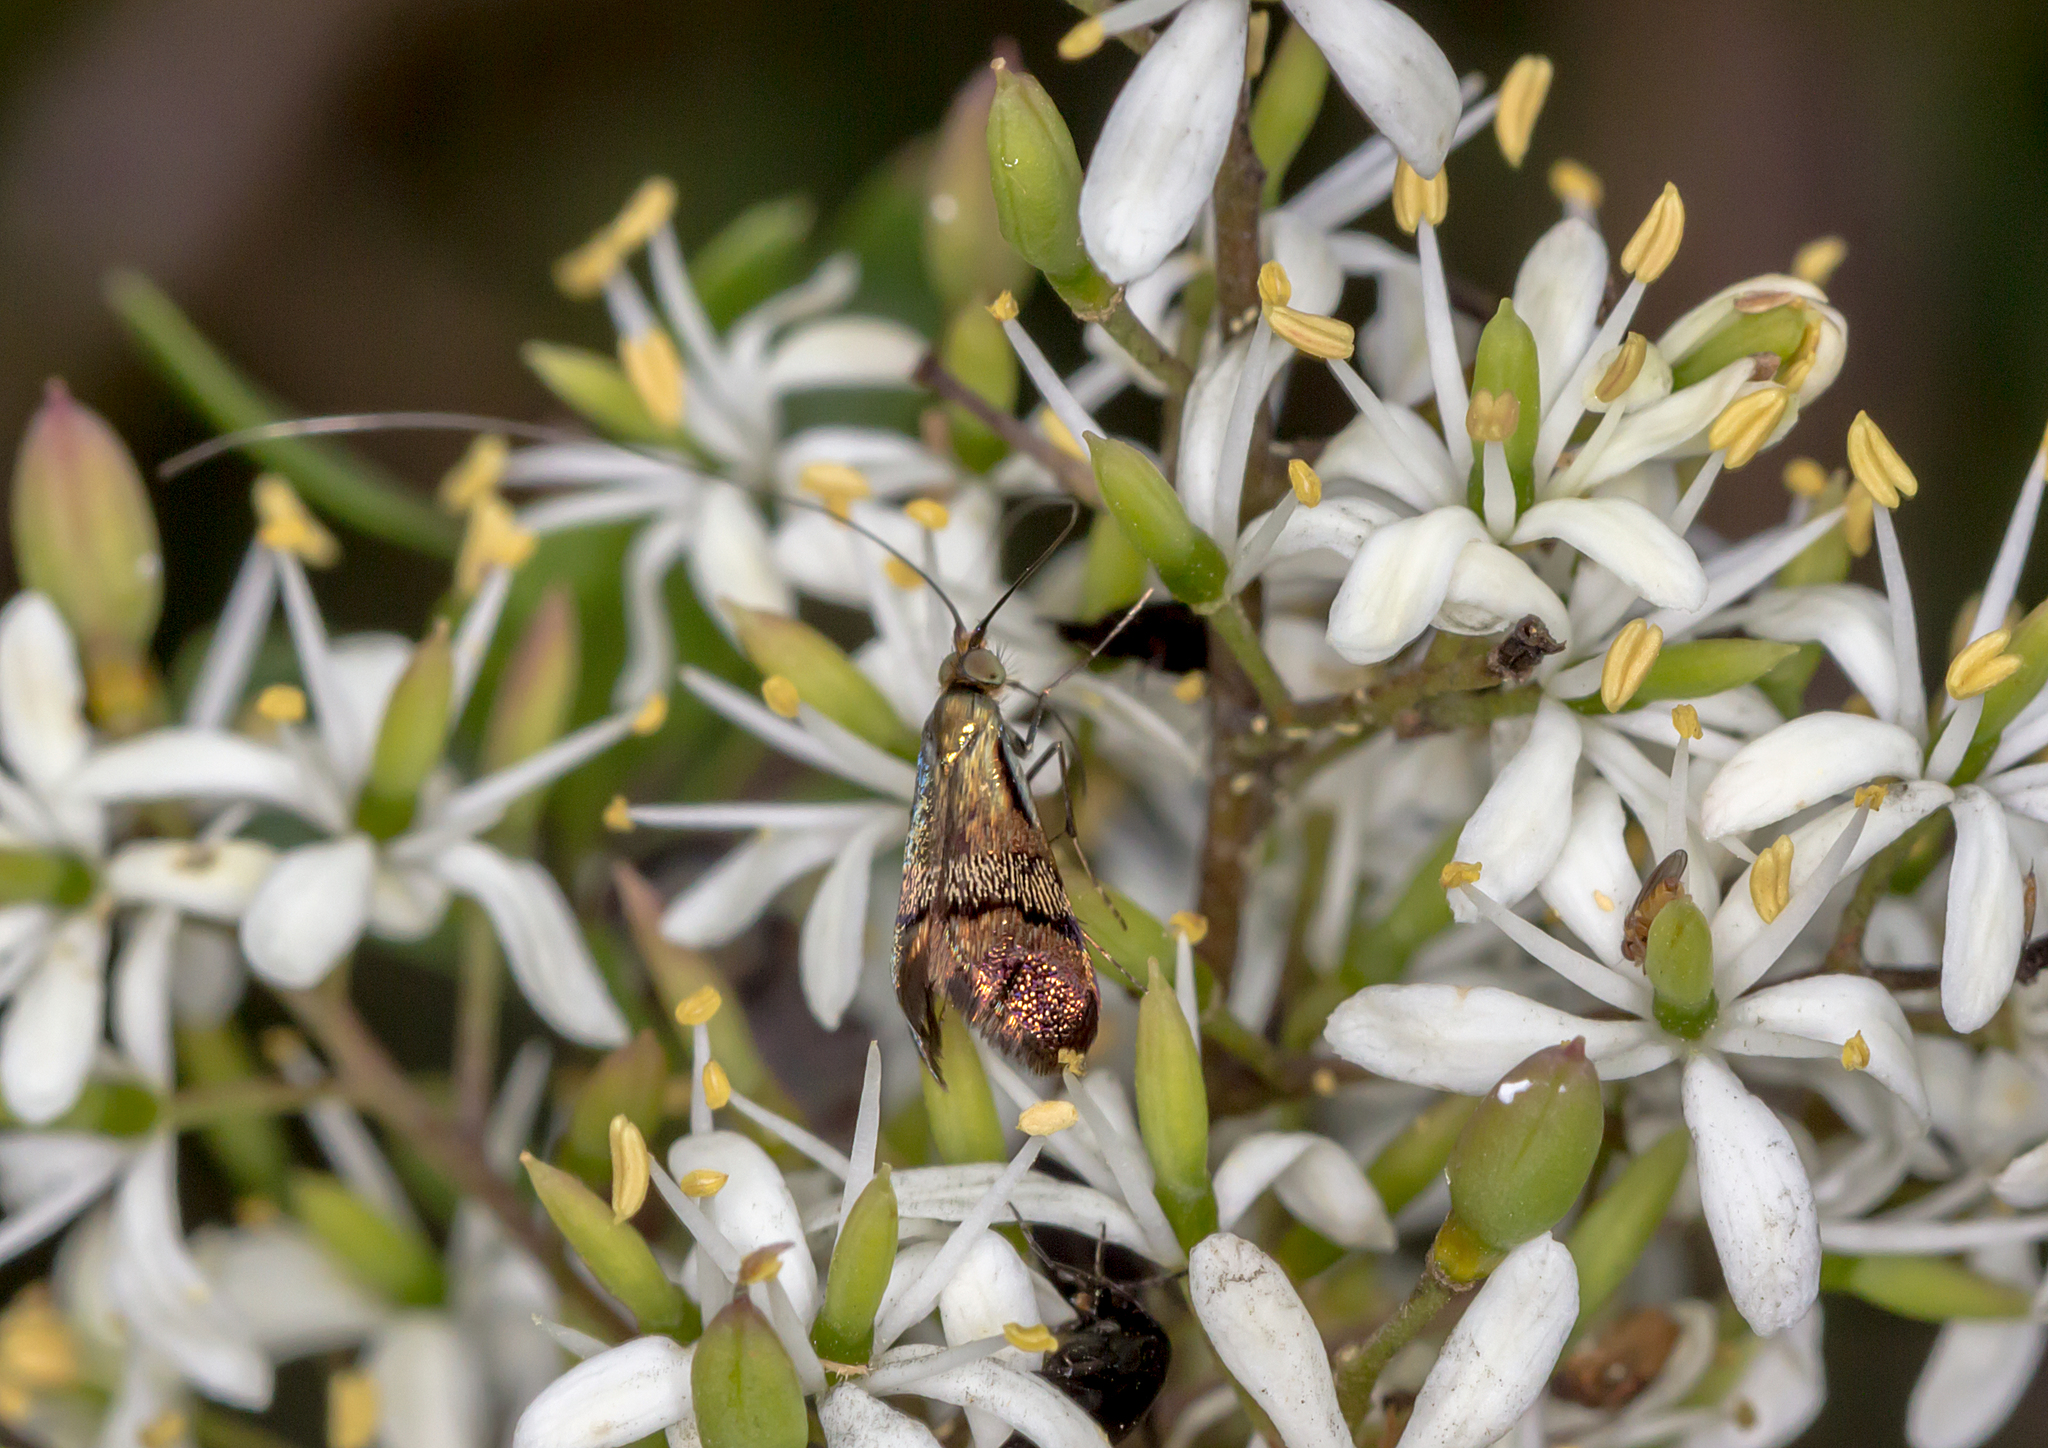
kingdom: Animalia
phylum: Arthropoda
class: Insecta
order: Lepidoptera
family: Adelidae
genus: Nemophora
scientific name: Nemophora laurella
